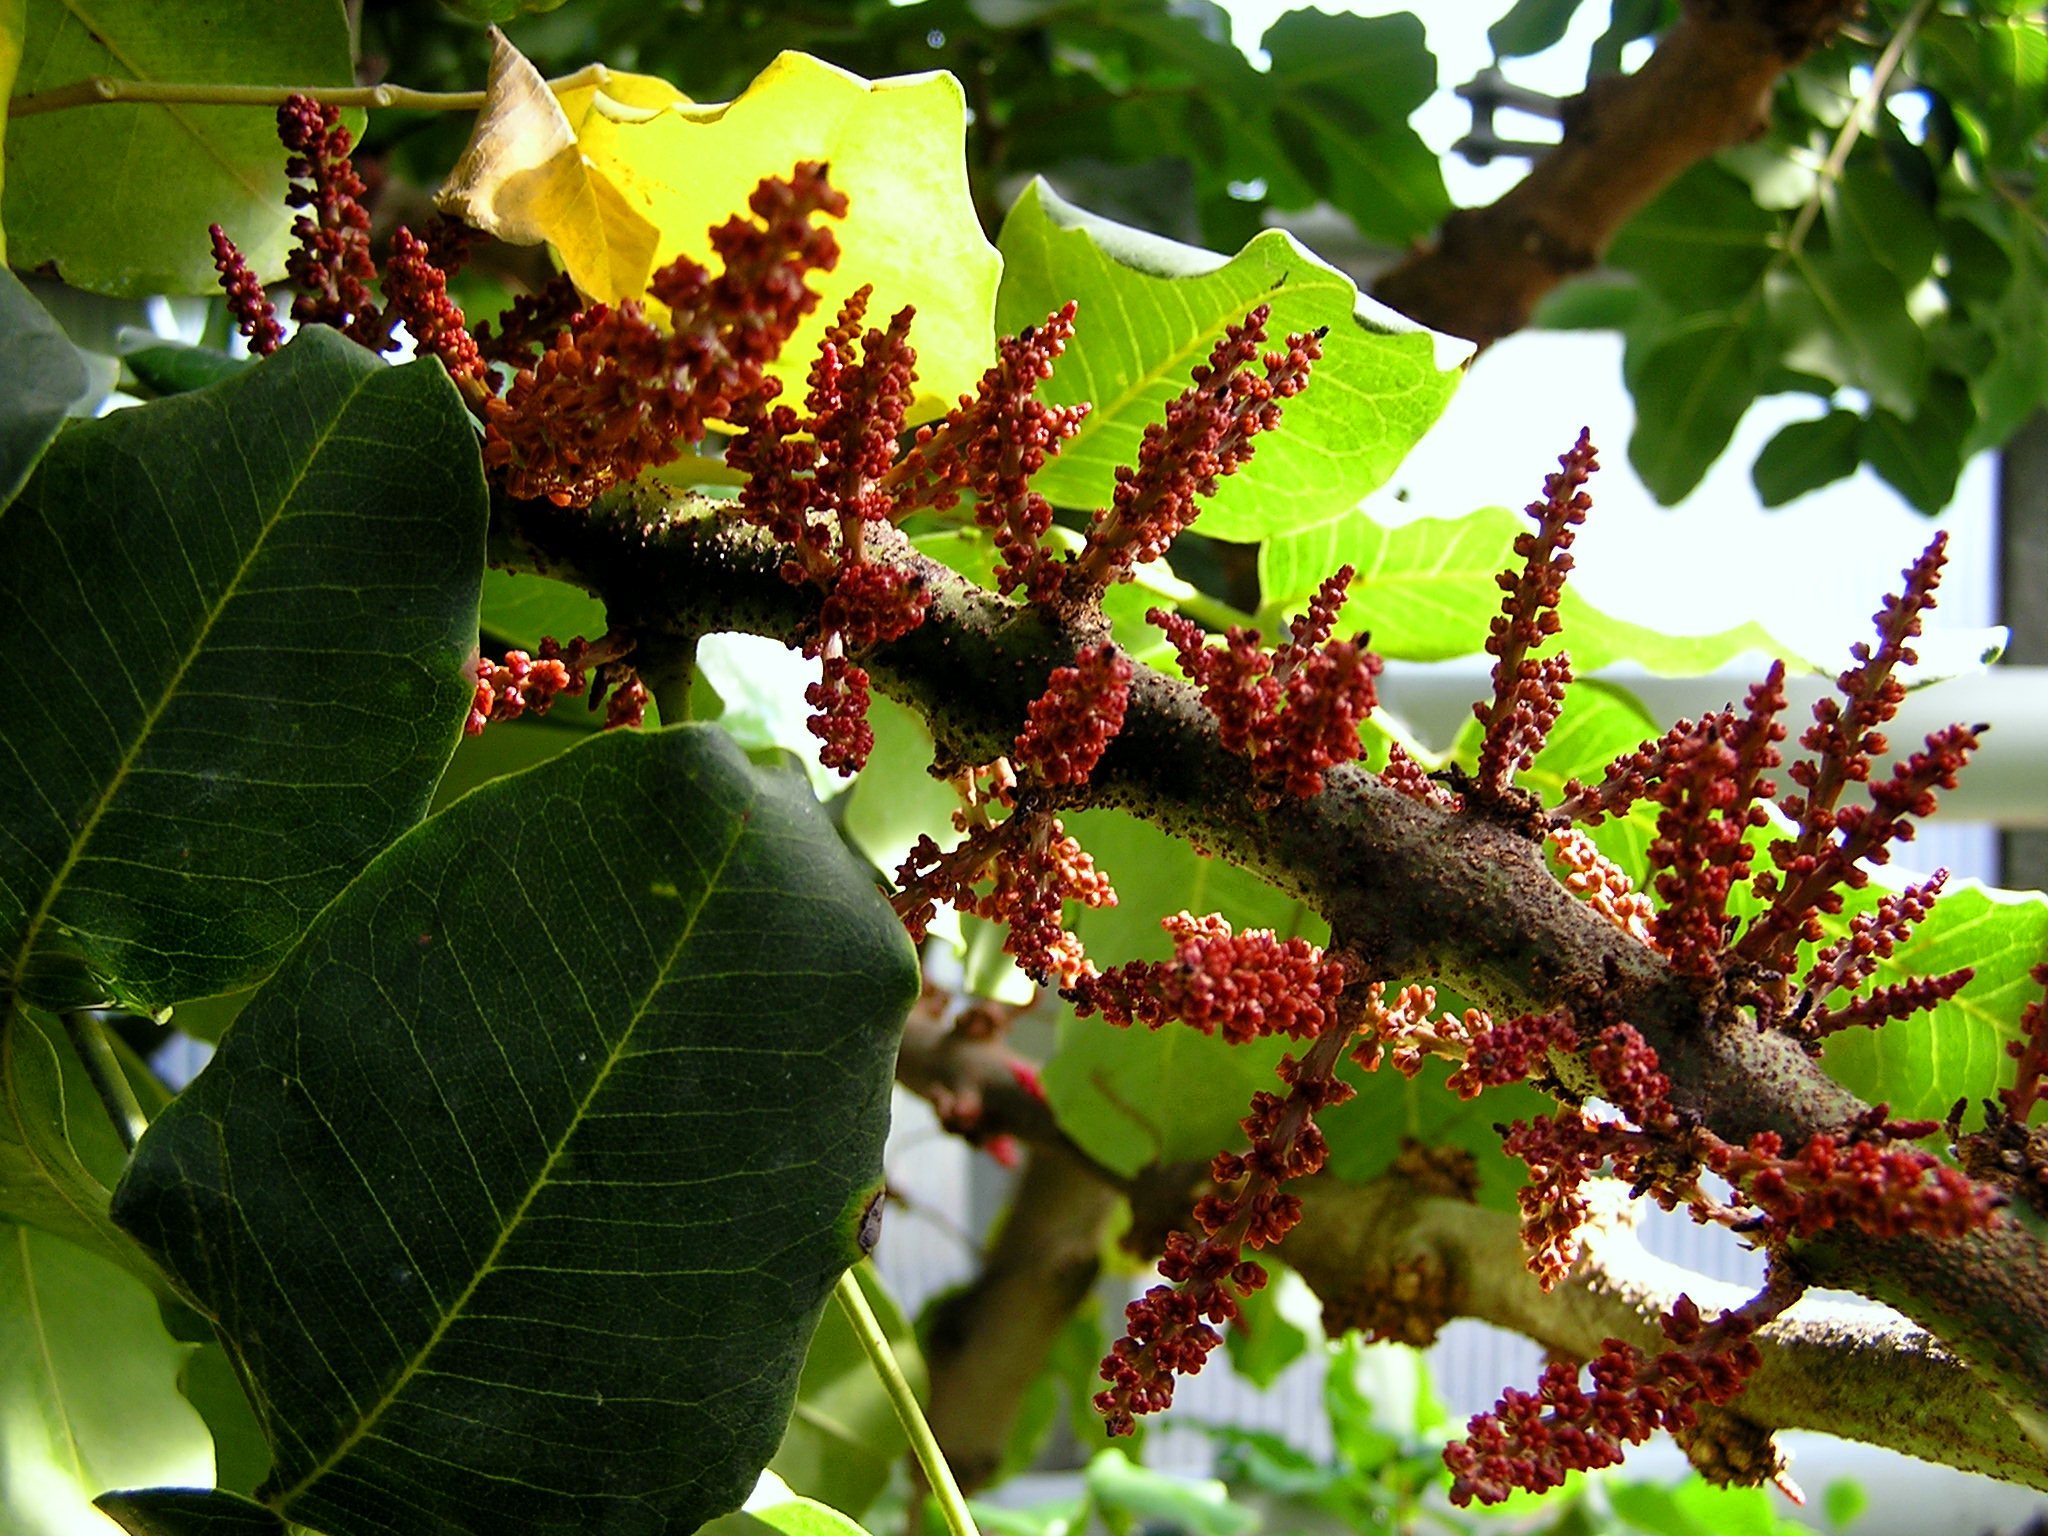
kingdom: Plantae
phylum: Tracheophyta
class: Magnoliopsida
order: Fabales
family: Fabaceae
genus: Ceratonia
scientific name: Ceratonia siliqua
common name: Carob
